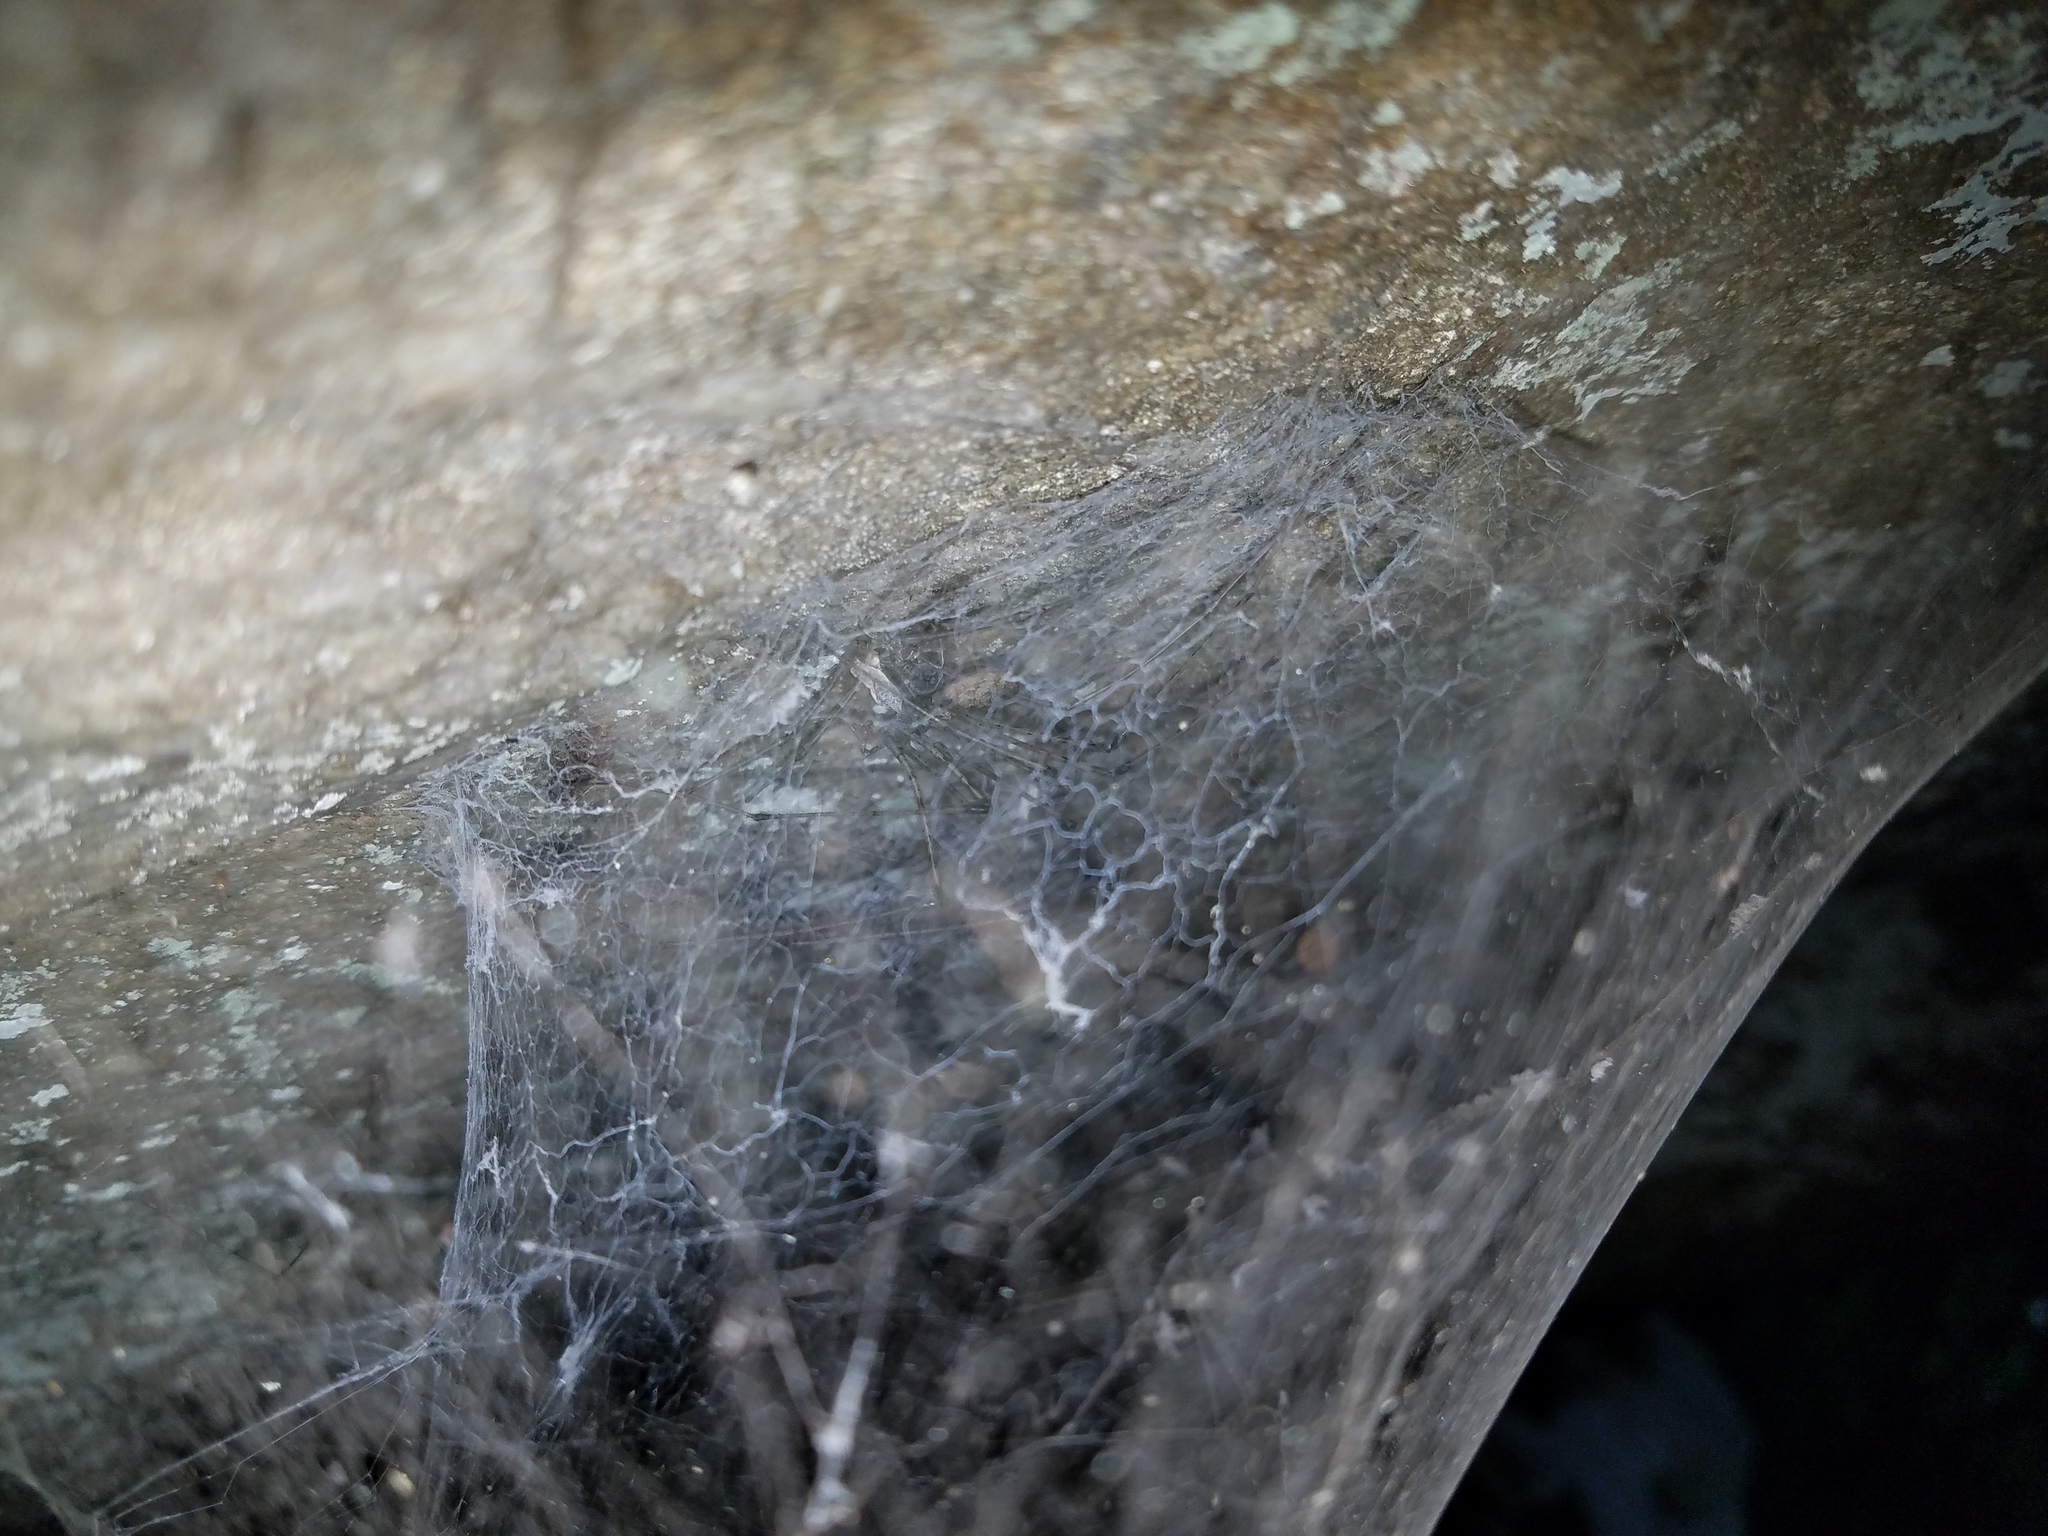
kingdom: Animalia
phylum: Arthropoda
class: Arachnida
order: Araneae
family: Hypochilidae
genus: Hypochilus
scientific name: Hypochilus pococki
